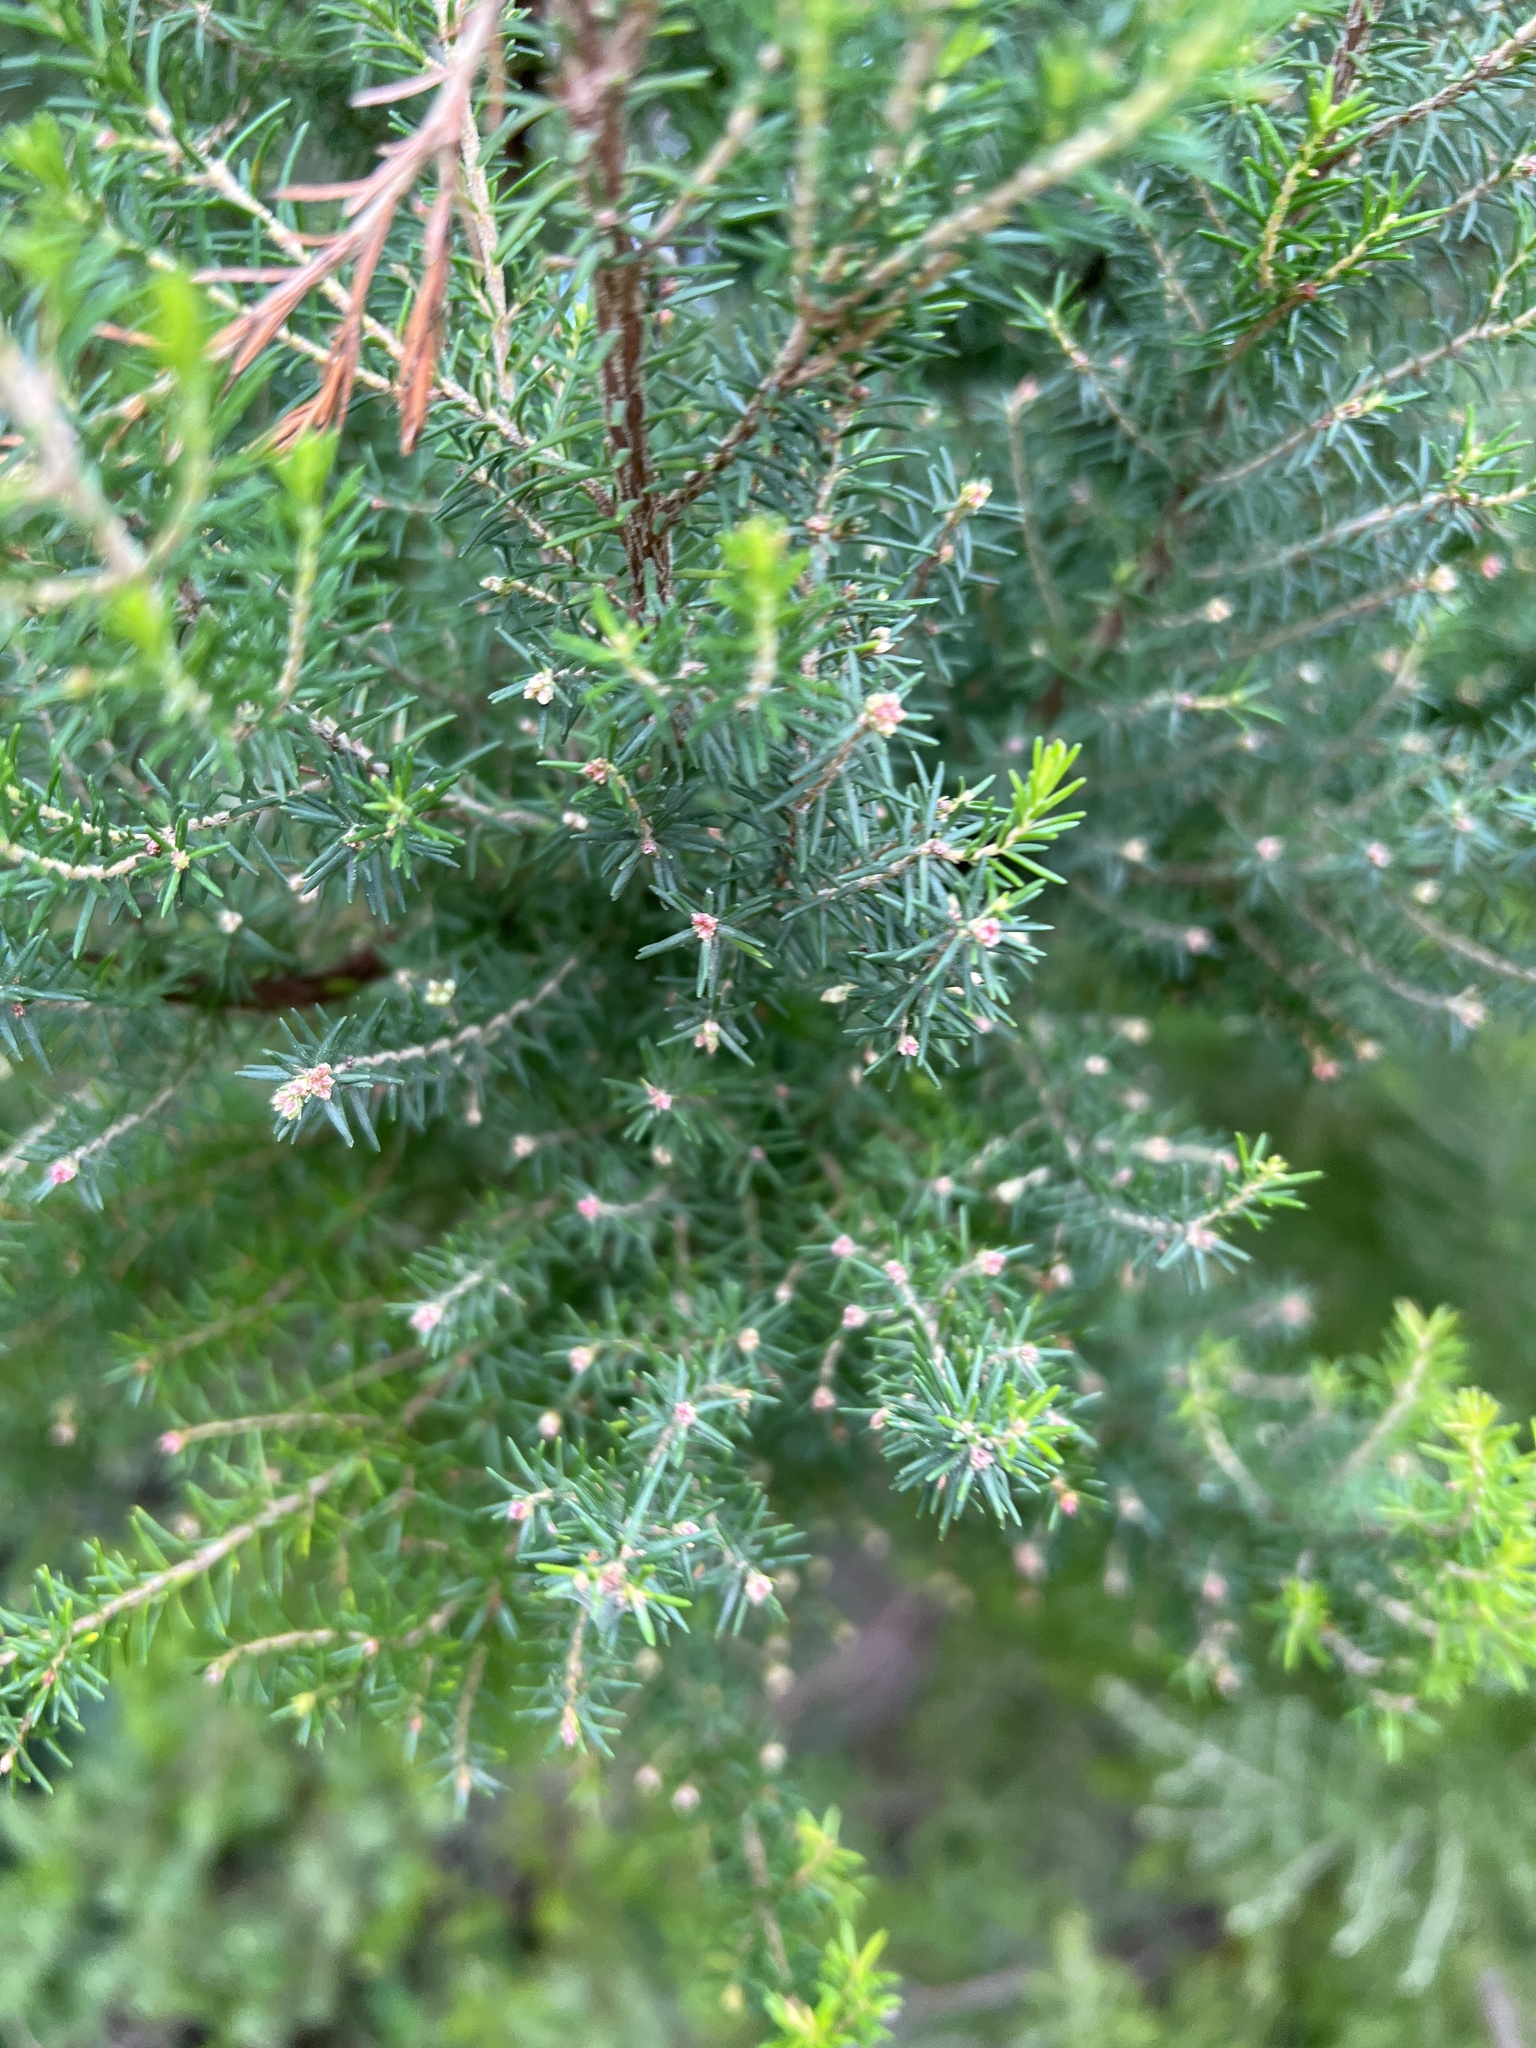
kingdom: Plantae
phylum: Tracheophyta
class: Magnoliopsida
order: Ericales
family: Ericaceae
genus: Erica
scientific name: Erica platycodon
